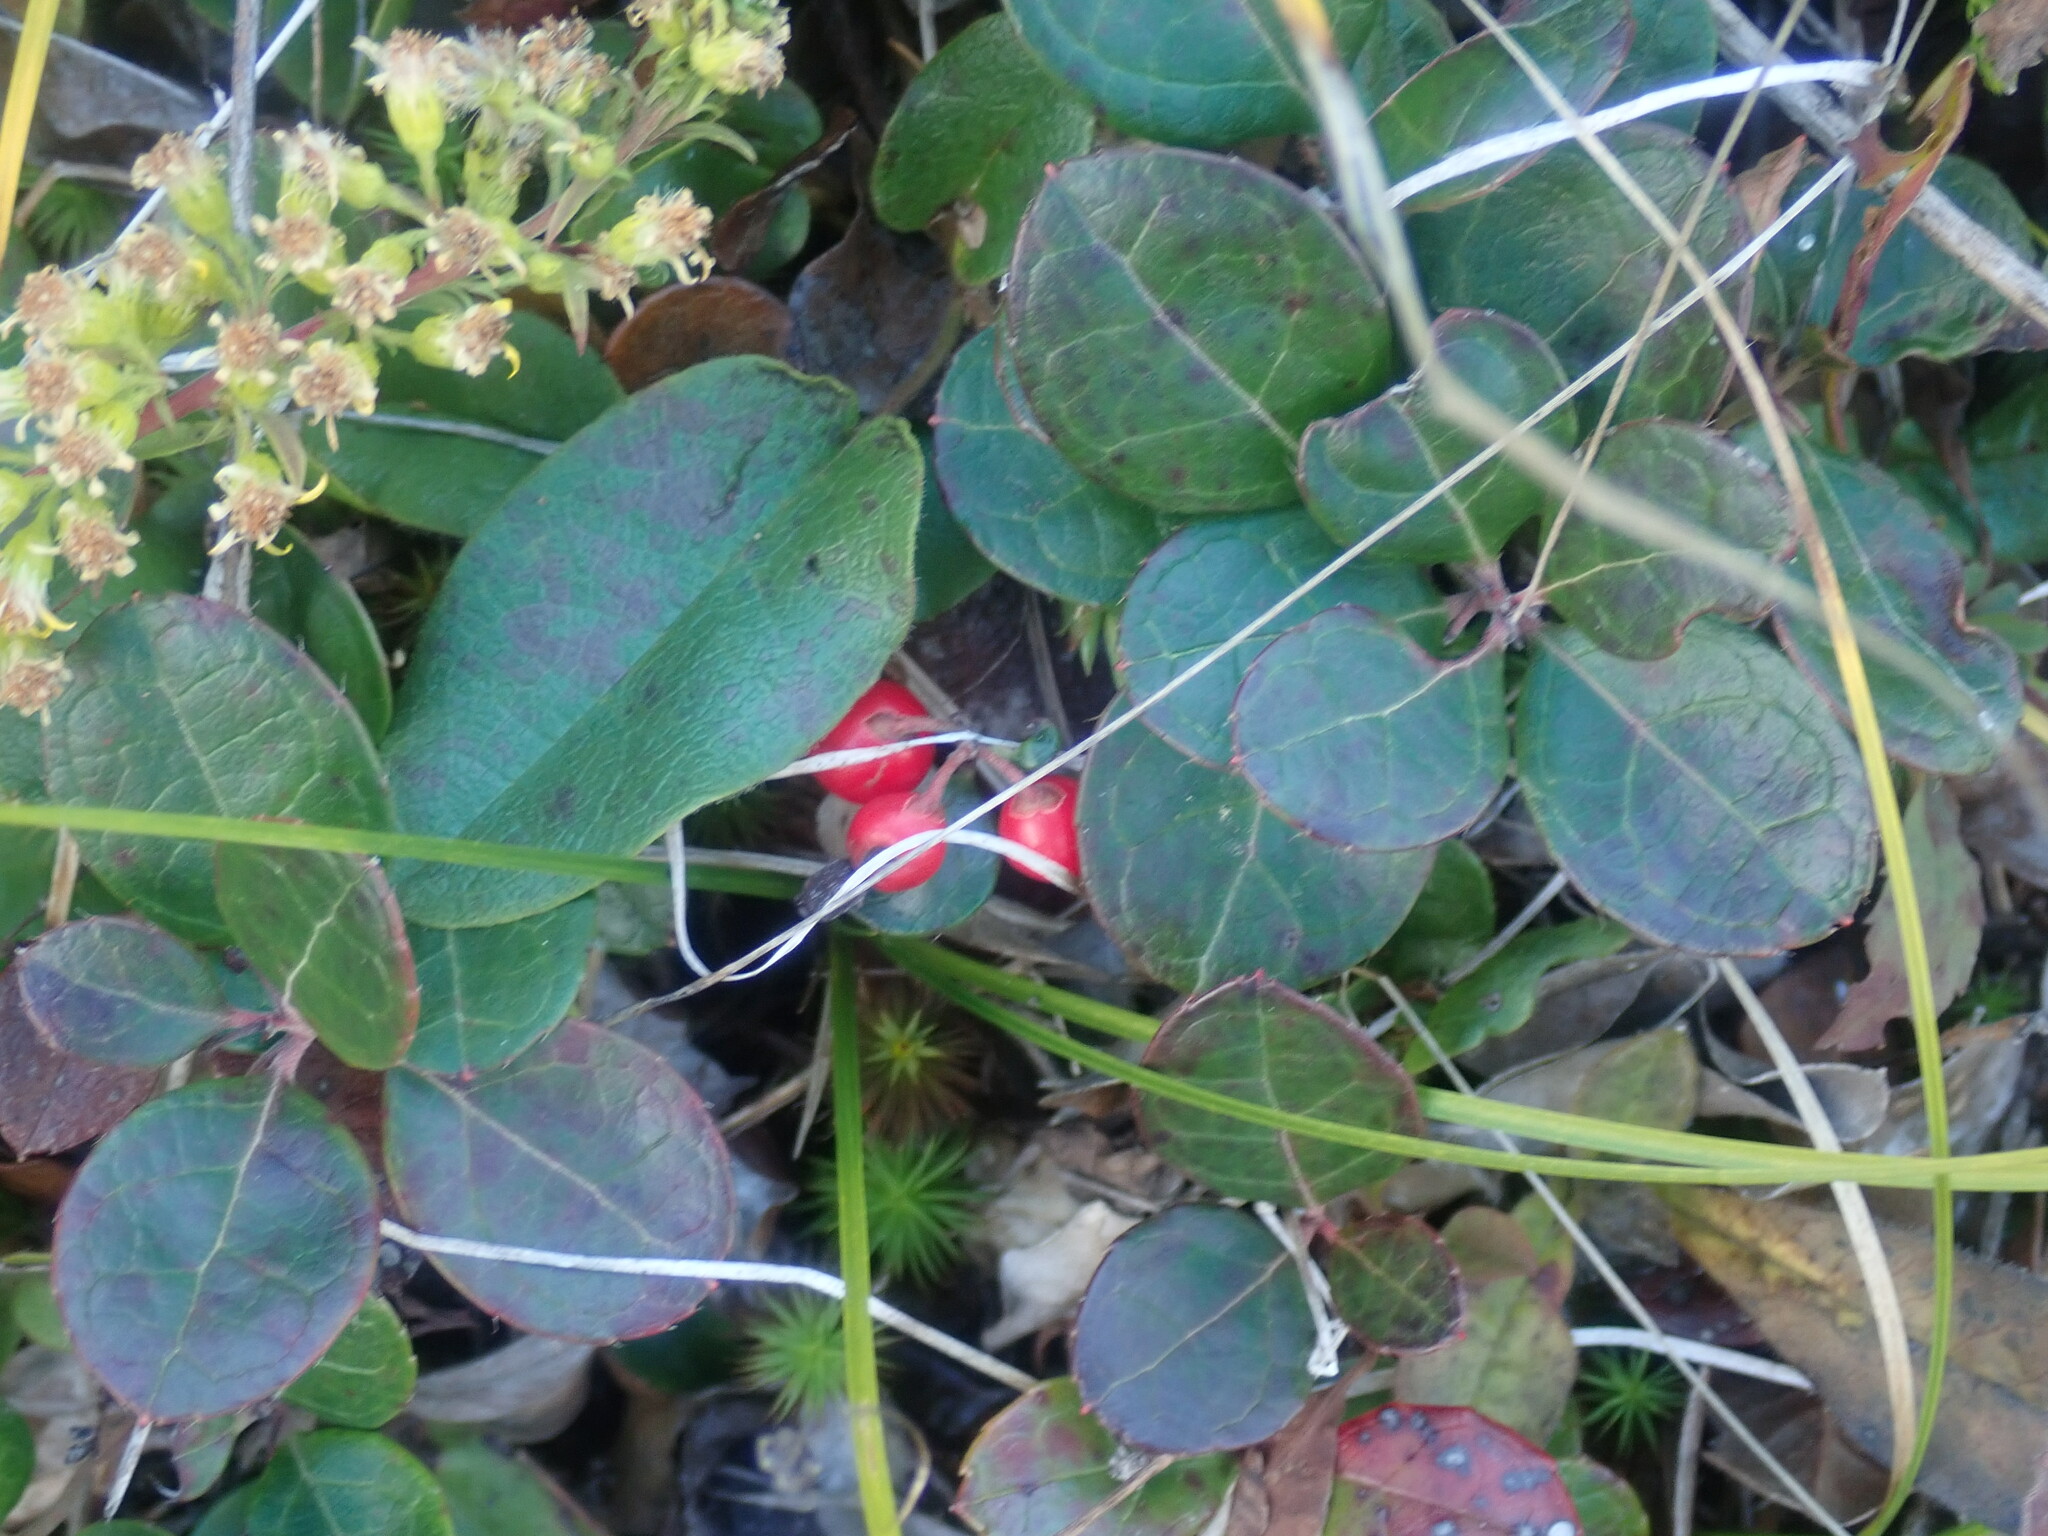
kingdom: Plantae
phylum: Tracheophyta
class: Magnoliopsida
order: Ericales
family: Ericaceae
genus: Gaultheria
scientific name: Gaultheria procumbens
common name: Checkerberry
